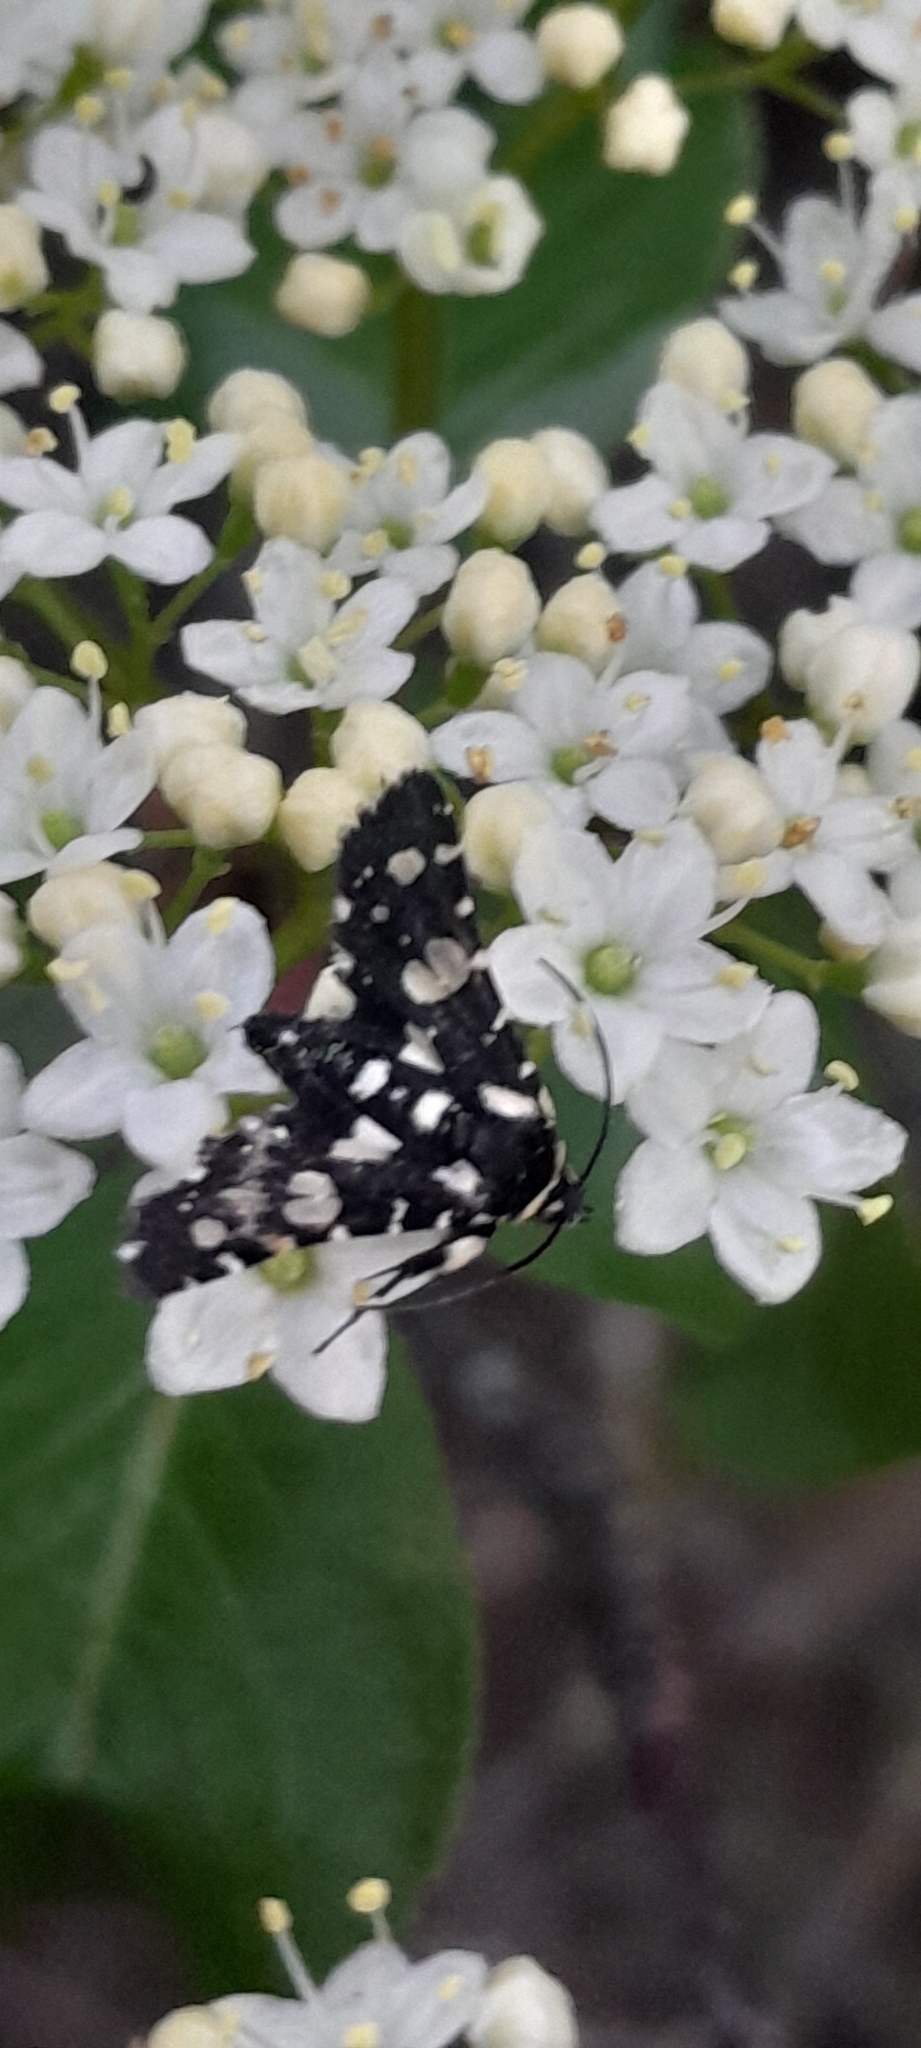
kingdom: Animalia
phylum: Arthropoda
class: Insecta
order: Lepidoptera
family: Thyrididae
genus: Pseudothyris
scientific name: Pseudothyris sepulchralis
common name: Mournful thyris moth
